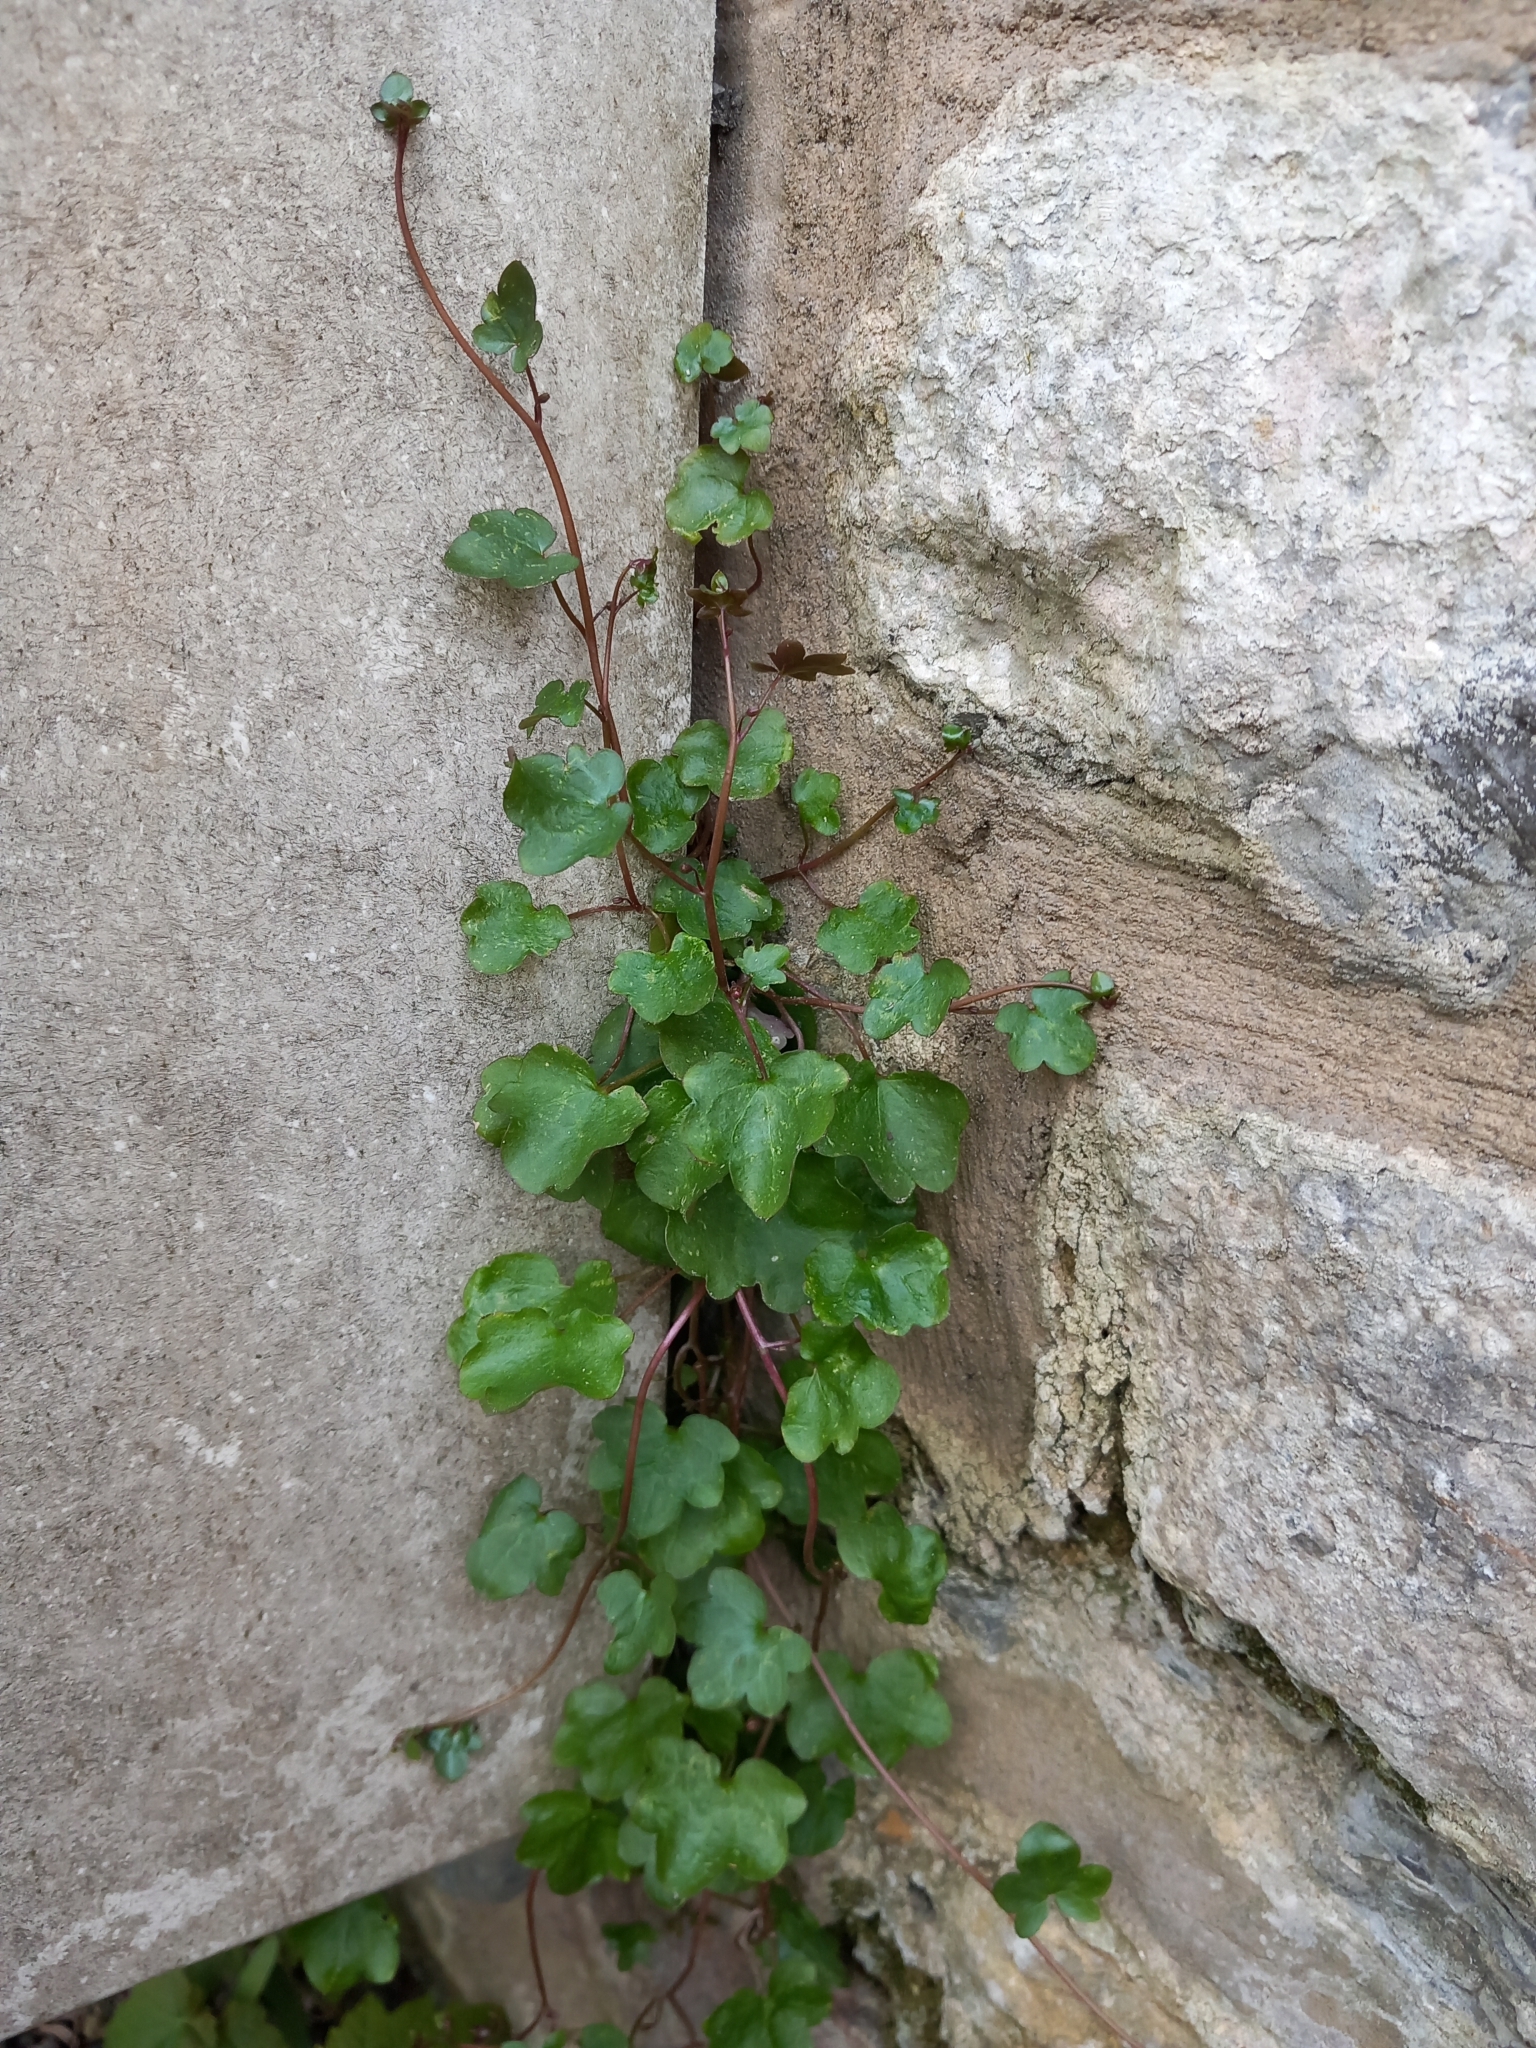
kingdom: Plantae
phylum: Tracheophyta
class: Magnoliopsida
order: Lamiales
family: Plantaginaceae
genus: Cymbalaria
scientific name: Cymbalaria muralis
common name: Ivy-leaved toadflax
